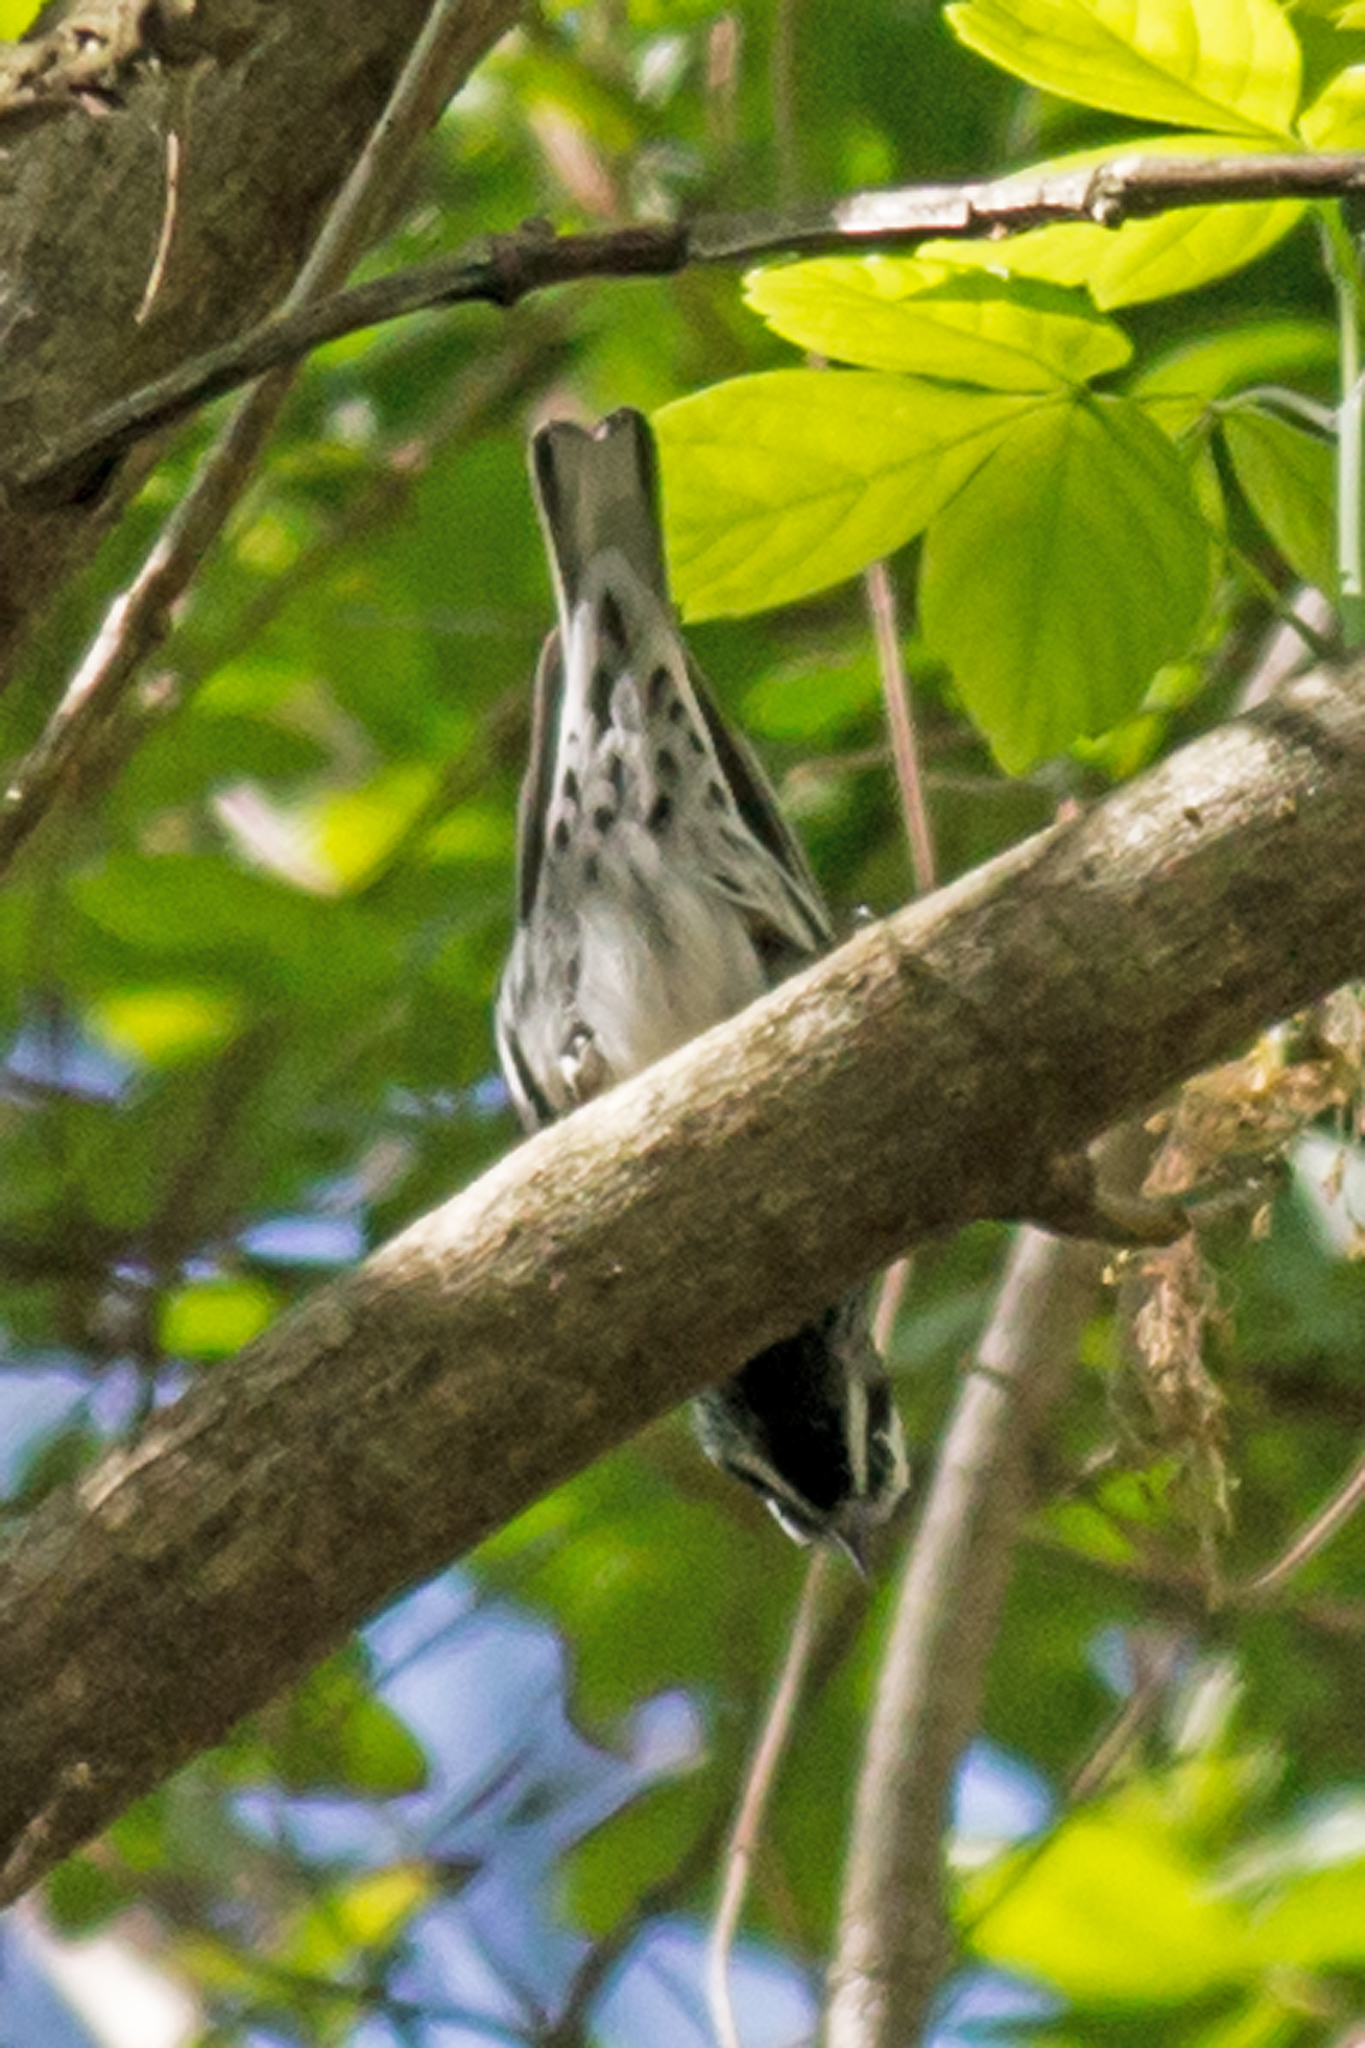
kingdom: Animalia
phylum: Chordata
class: Aves
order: Passeriformes
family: Parulidae
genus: Mniotilta
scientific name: Mniotilta varia
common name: Black-and-white warbler
